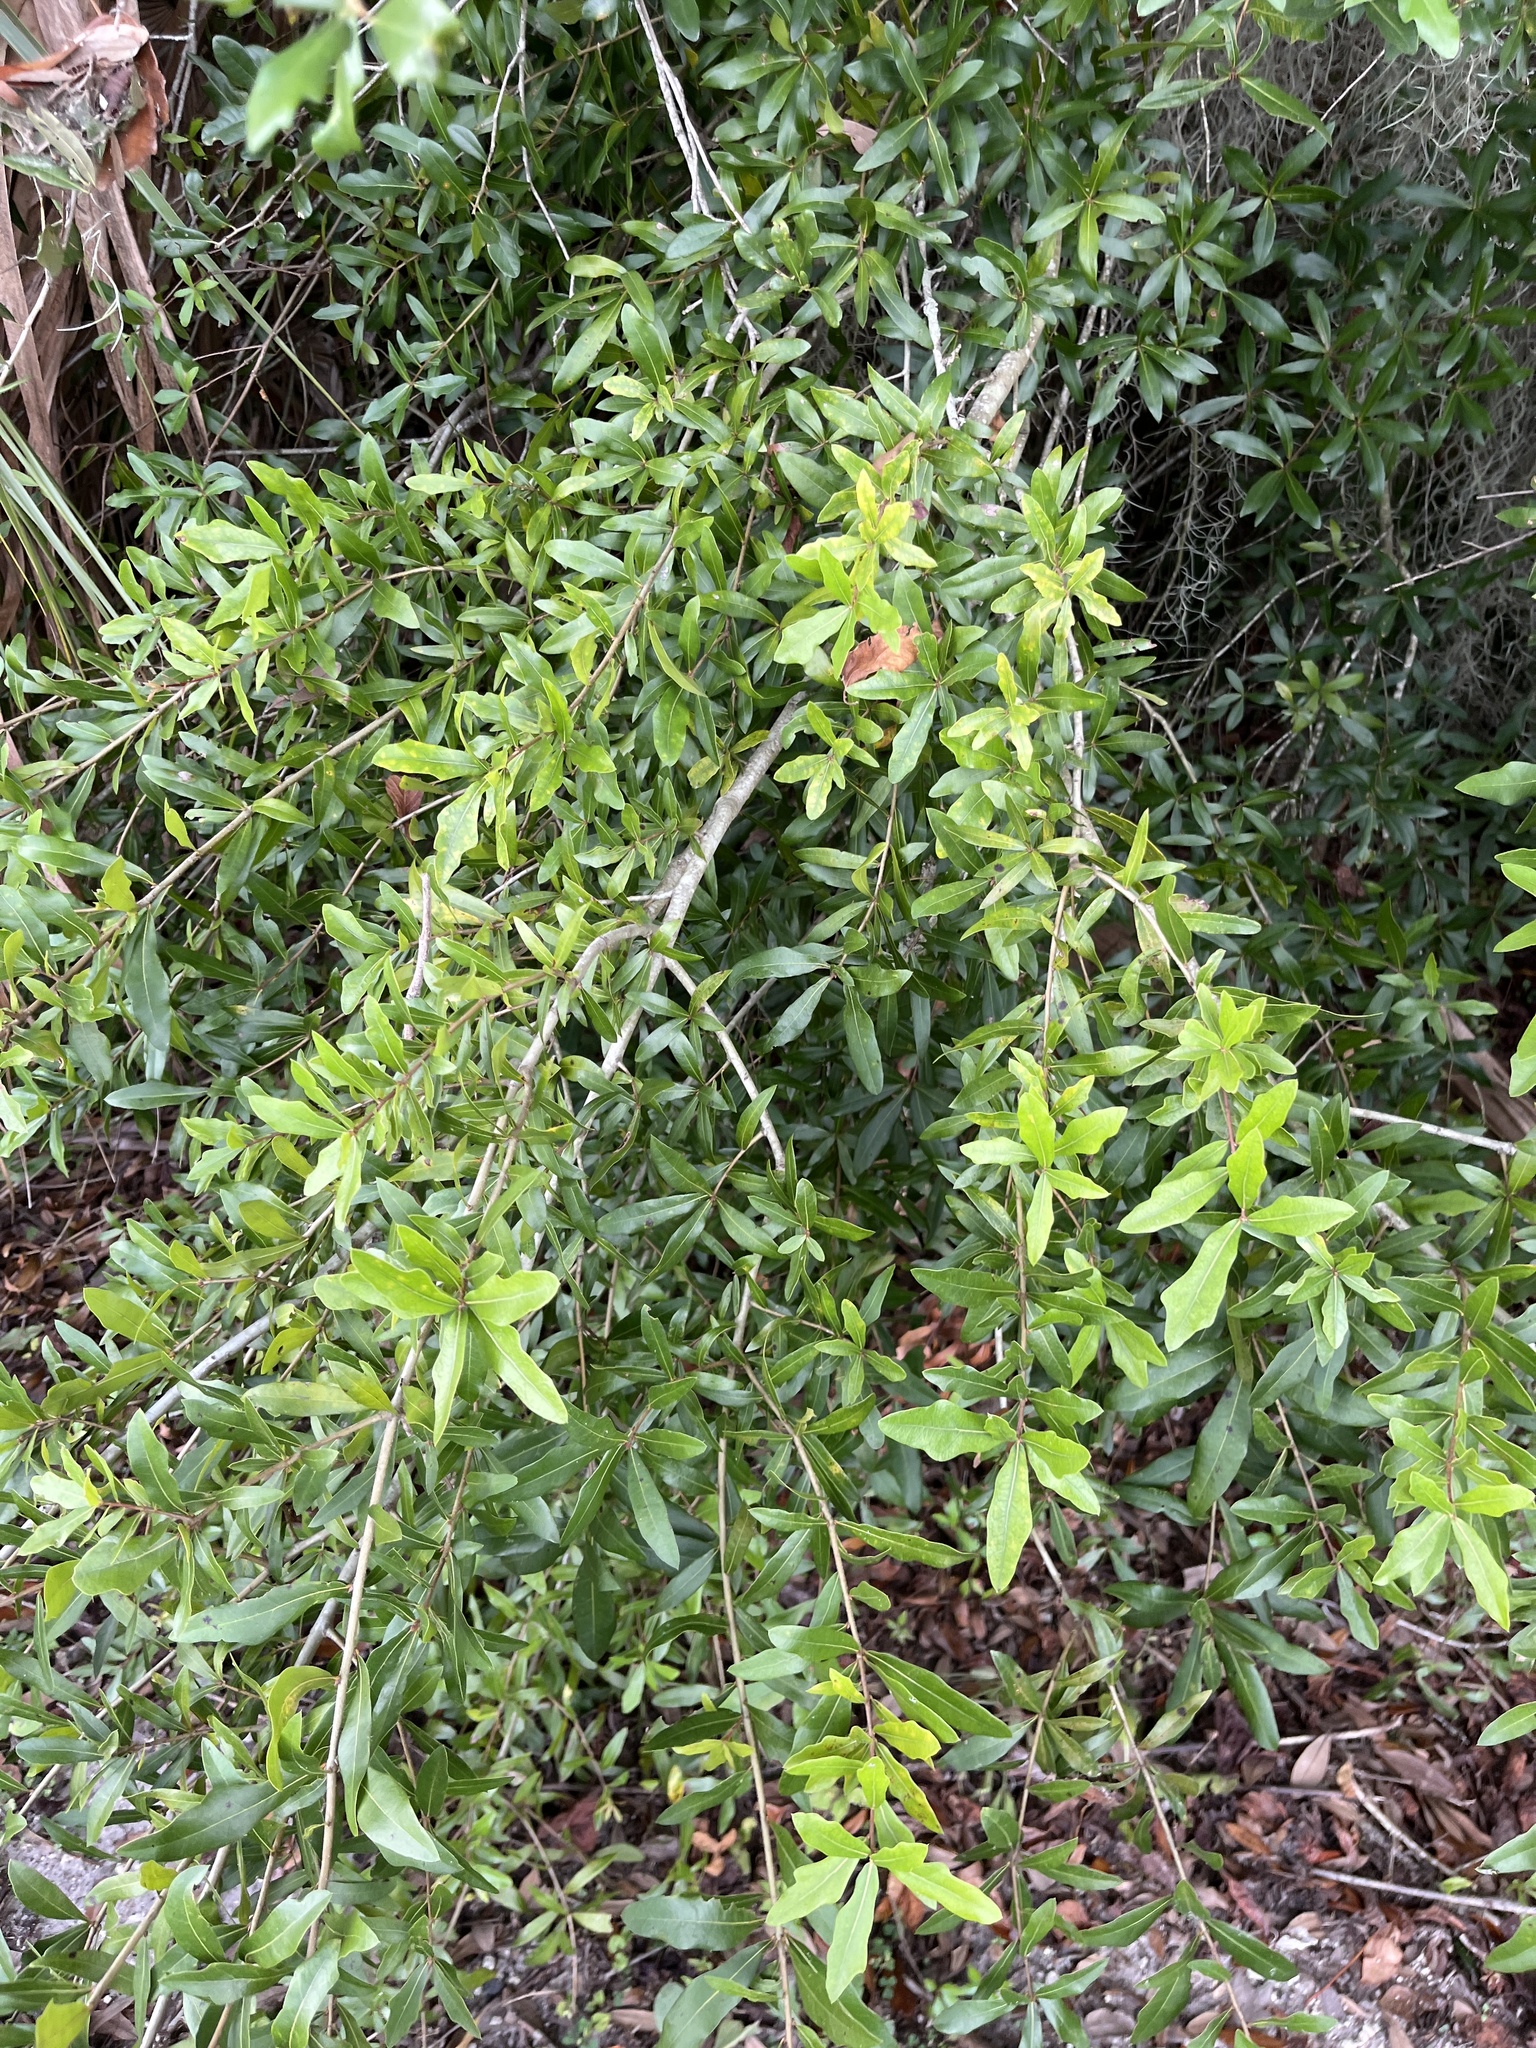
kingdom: Plantae
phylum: Tracheophyta
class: Magnoliopsida
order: Fagales
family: Fagaceae
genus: Quercus
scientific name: Quercus hemisphaerica
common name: Darlington oak
